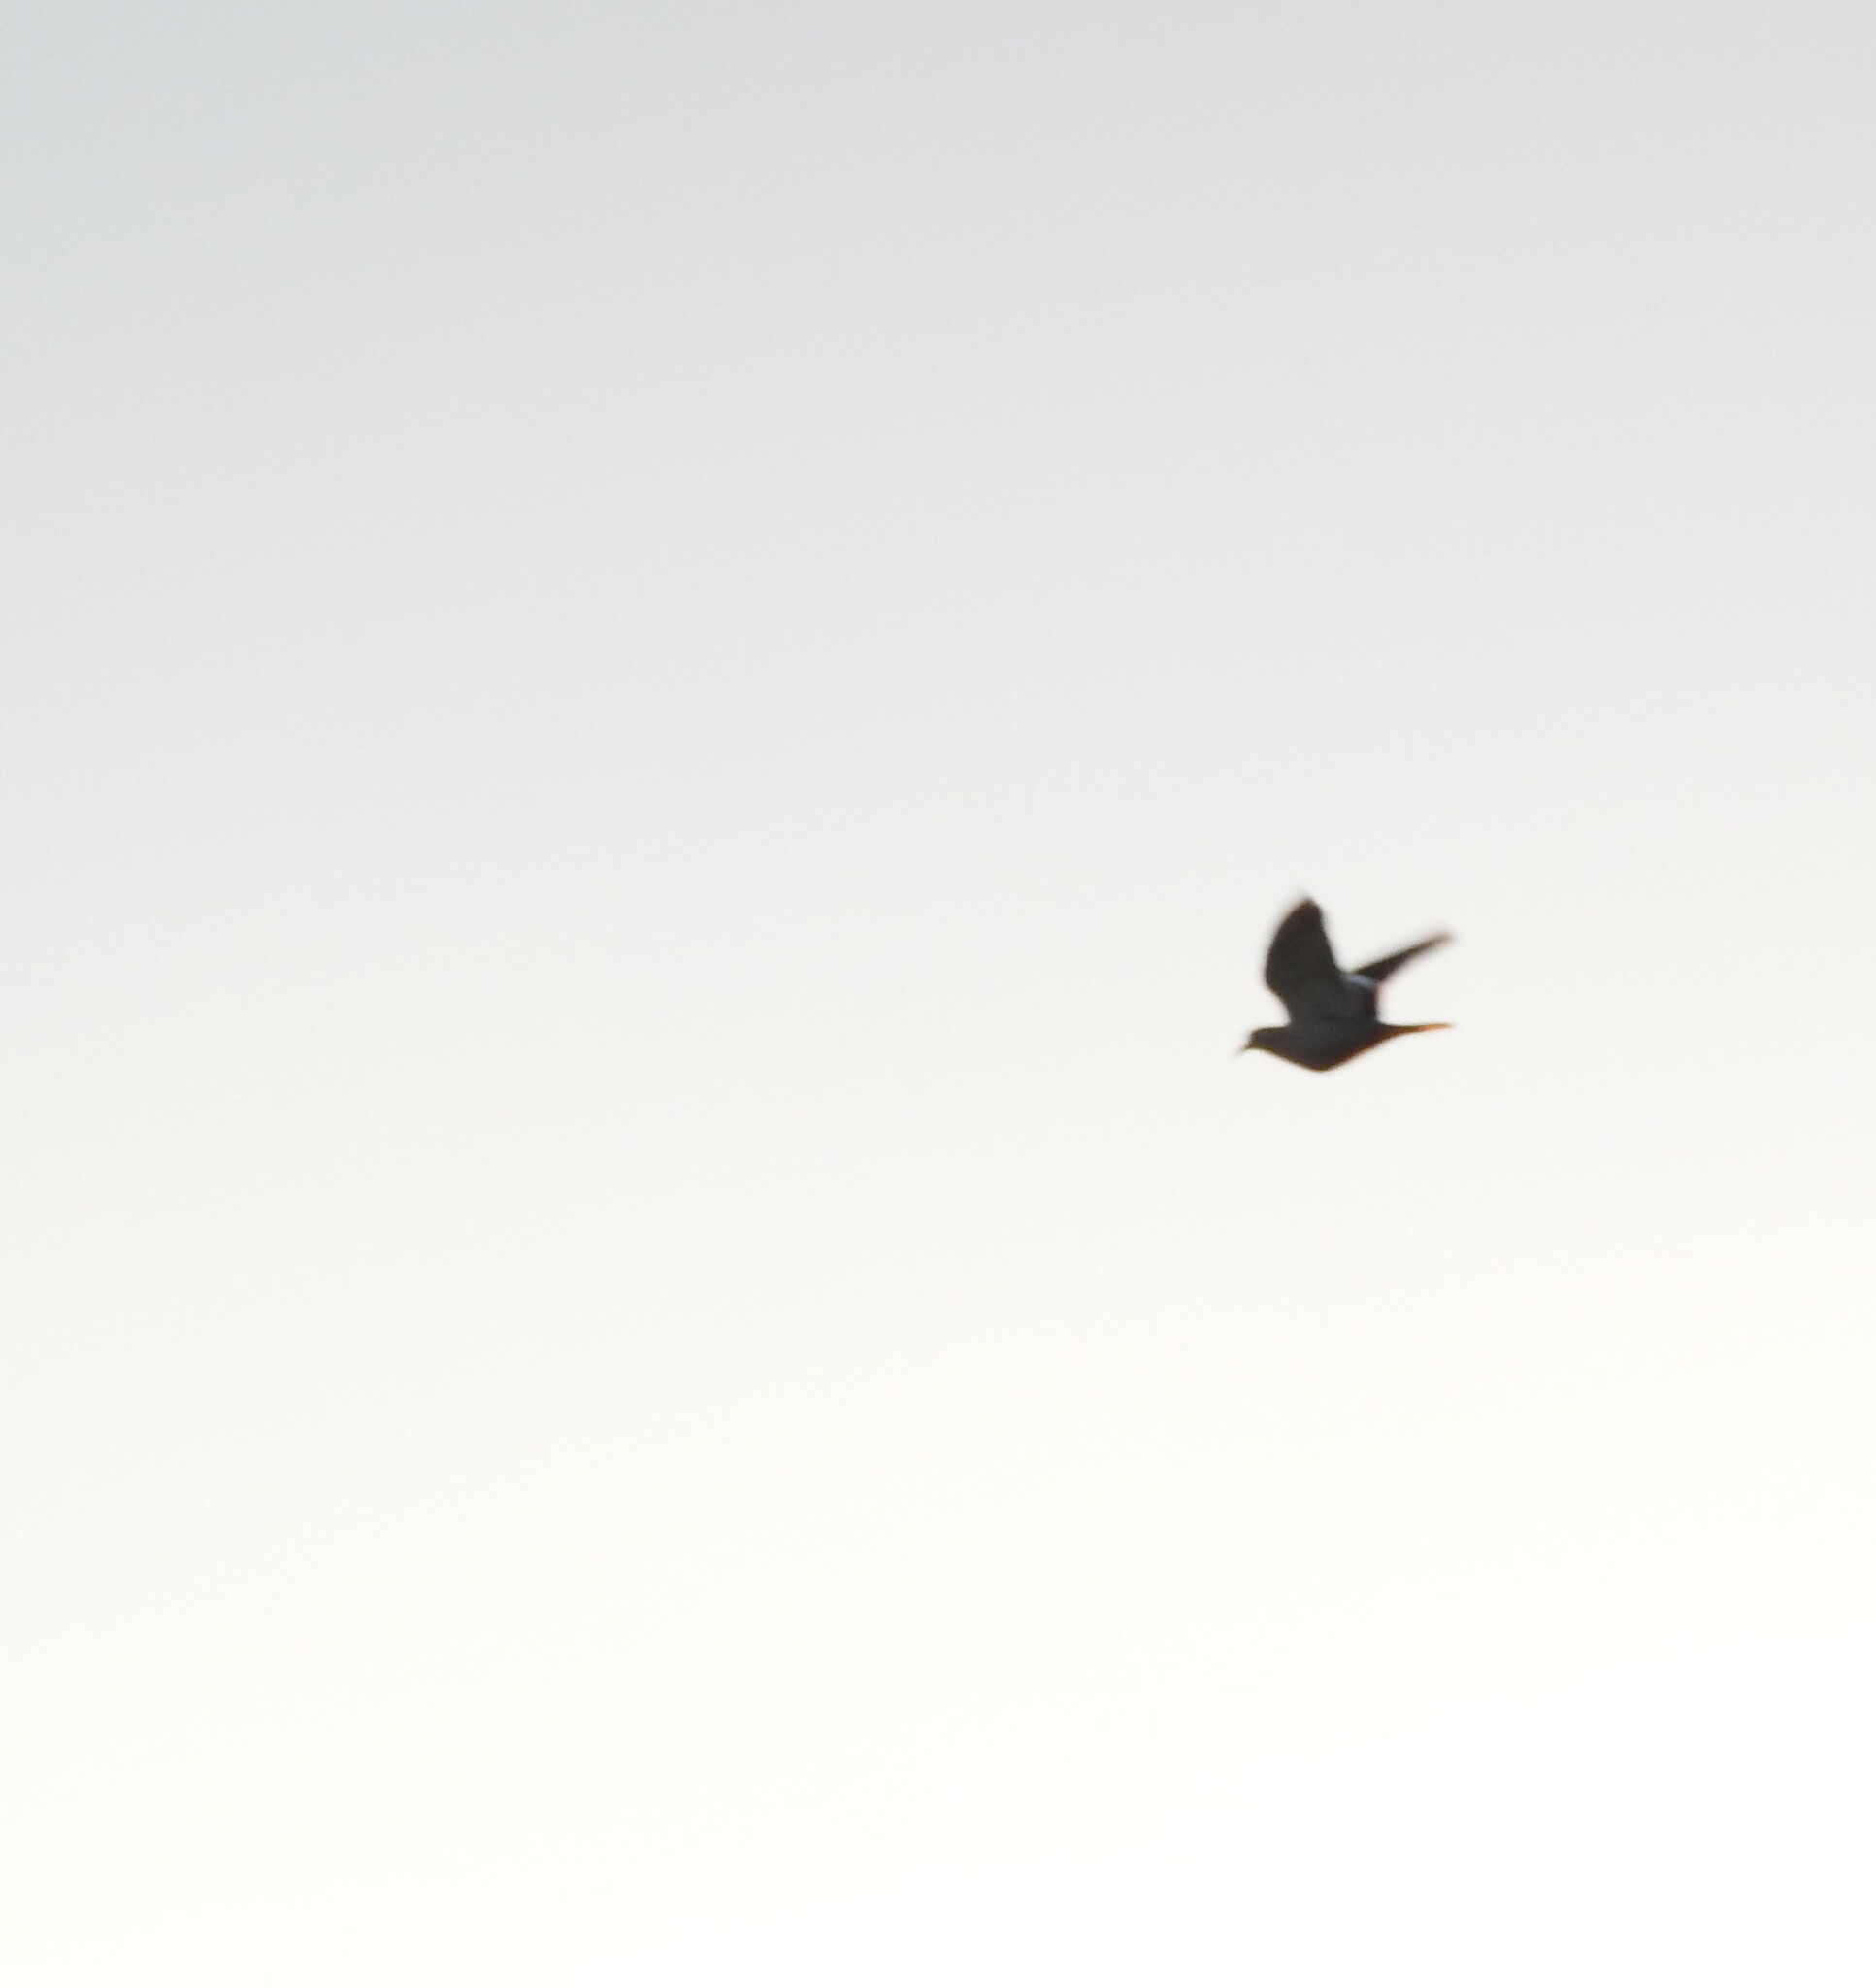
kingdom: Animalia
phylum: Chordata
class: Aves
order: Columbiformes
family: Columbidae
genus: Zenaida
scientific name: Zenaida asiatica
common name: White-winged dove
